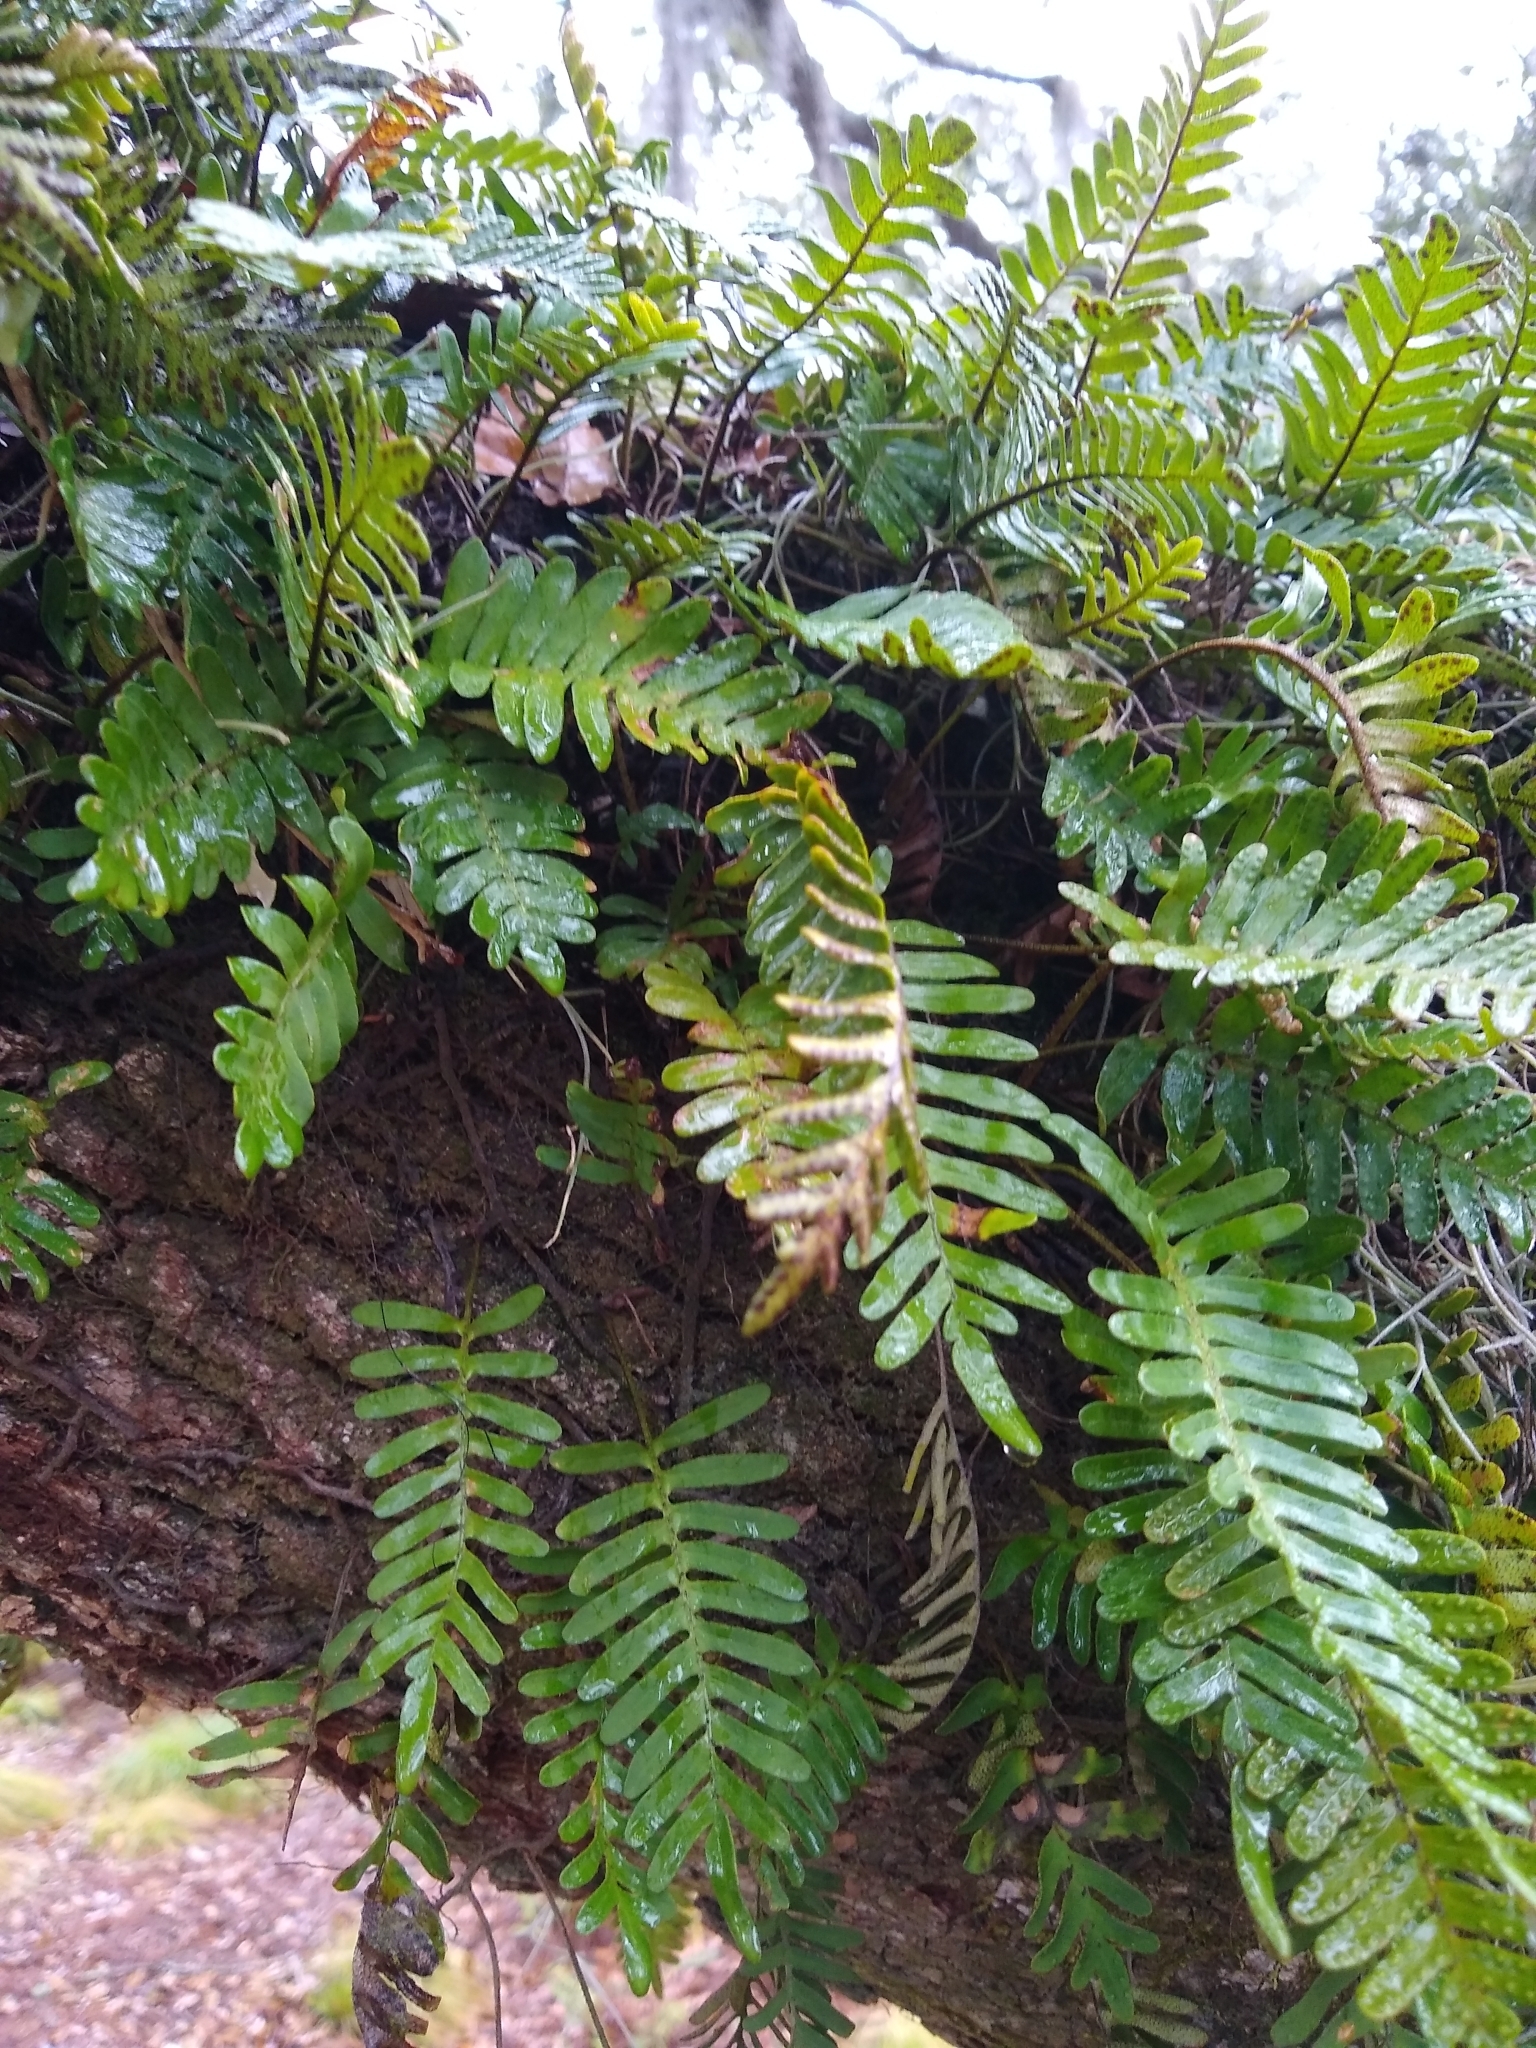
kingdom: Plantae
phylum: Tracheophyta
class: Polypodiopsida
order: Polypodiales
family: Polypodiaceae
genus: Pleopeltis
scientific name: Pleopeltis michauxiana
